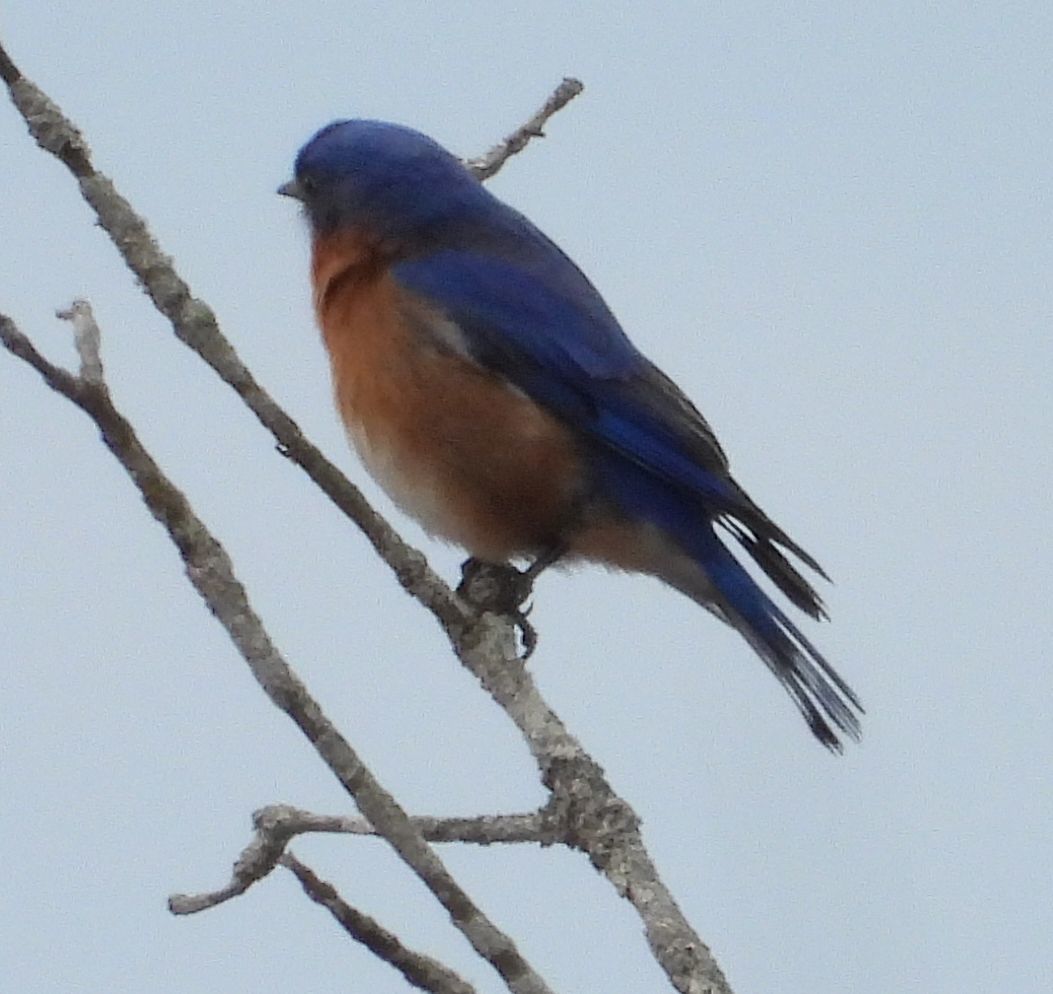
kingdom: Animalia
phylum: Chordata
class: Aves
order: Passeriformes
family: Turdidae
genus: Sialia
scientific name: Sialia sialis
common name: Eastern bluebird
